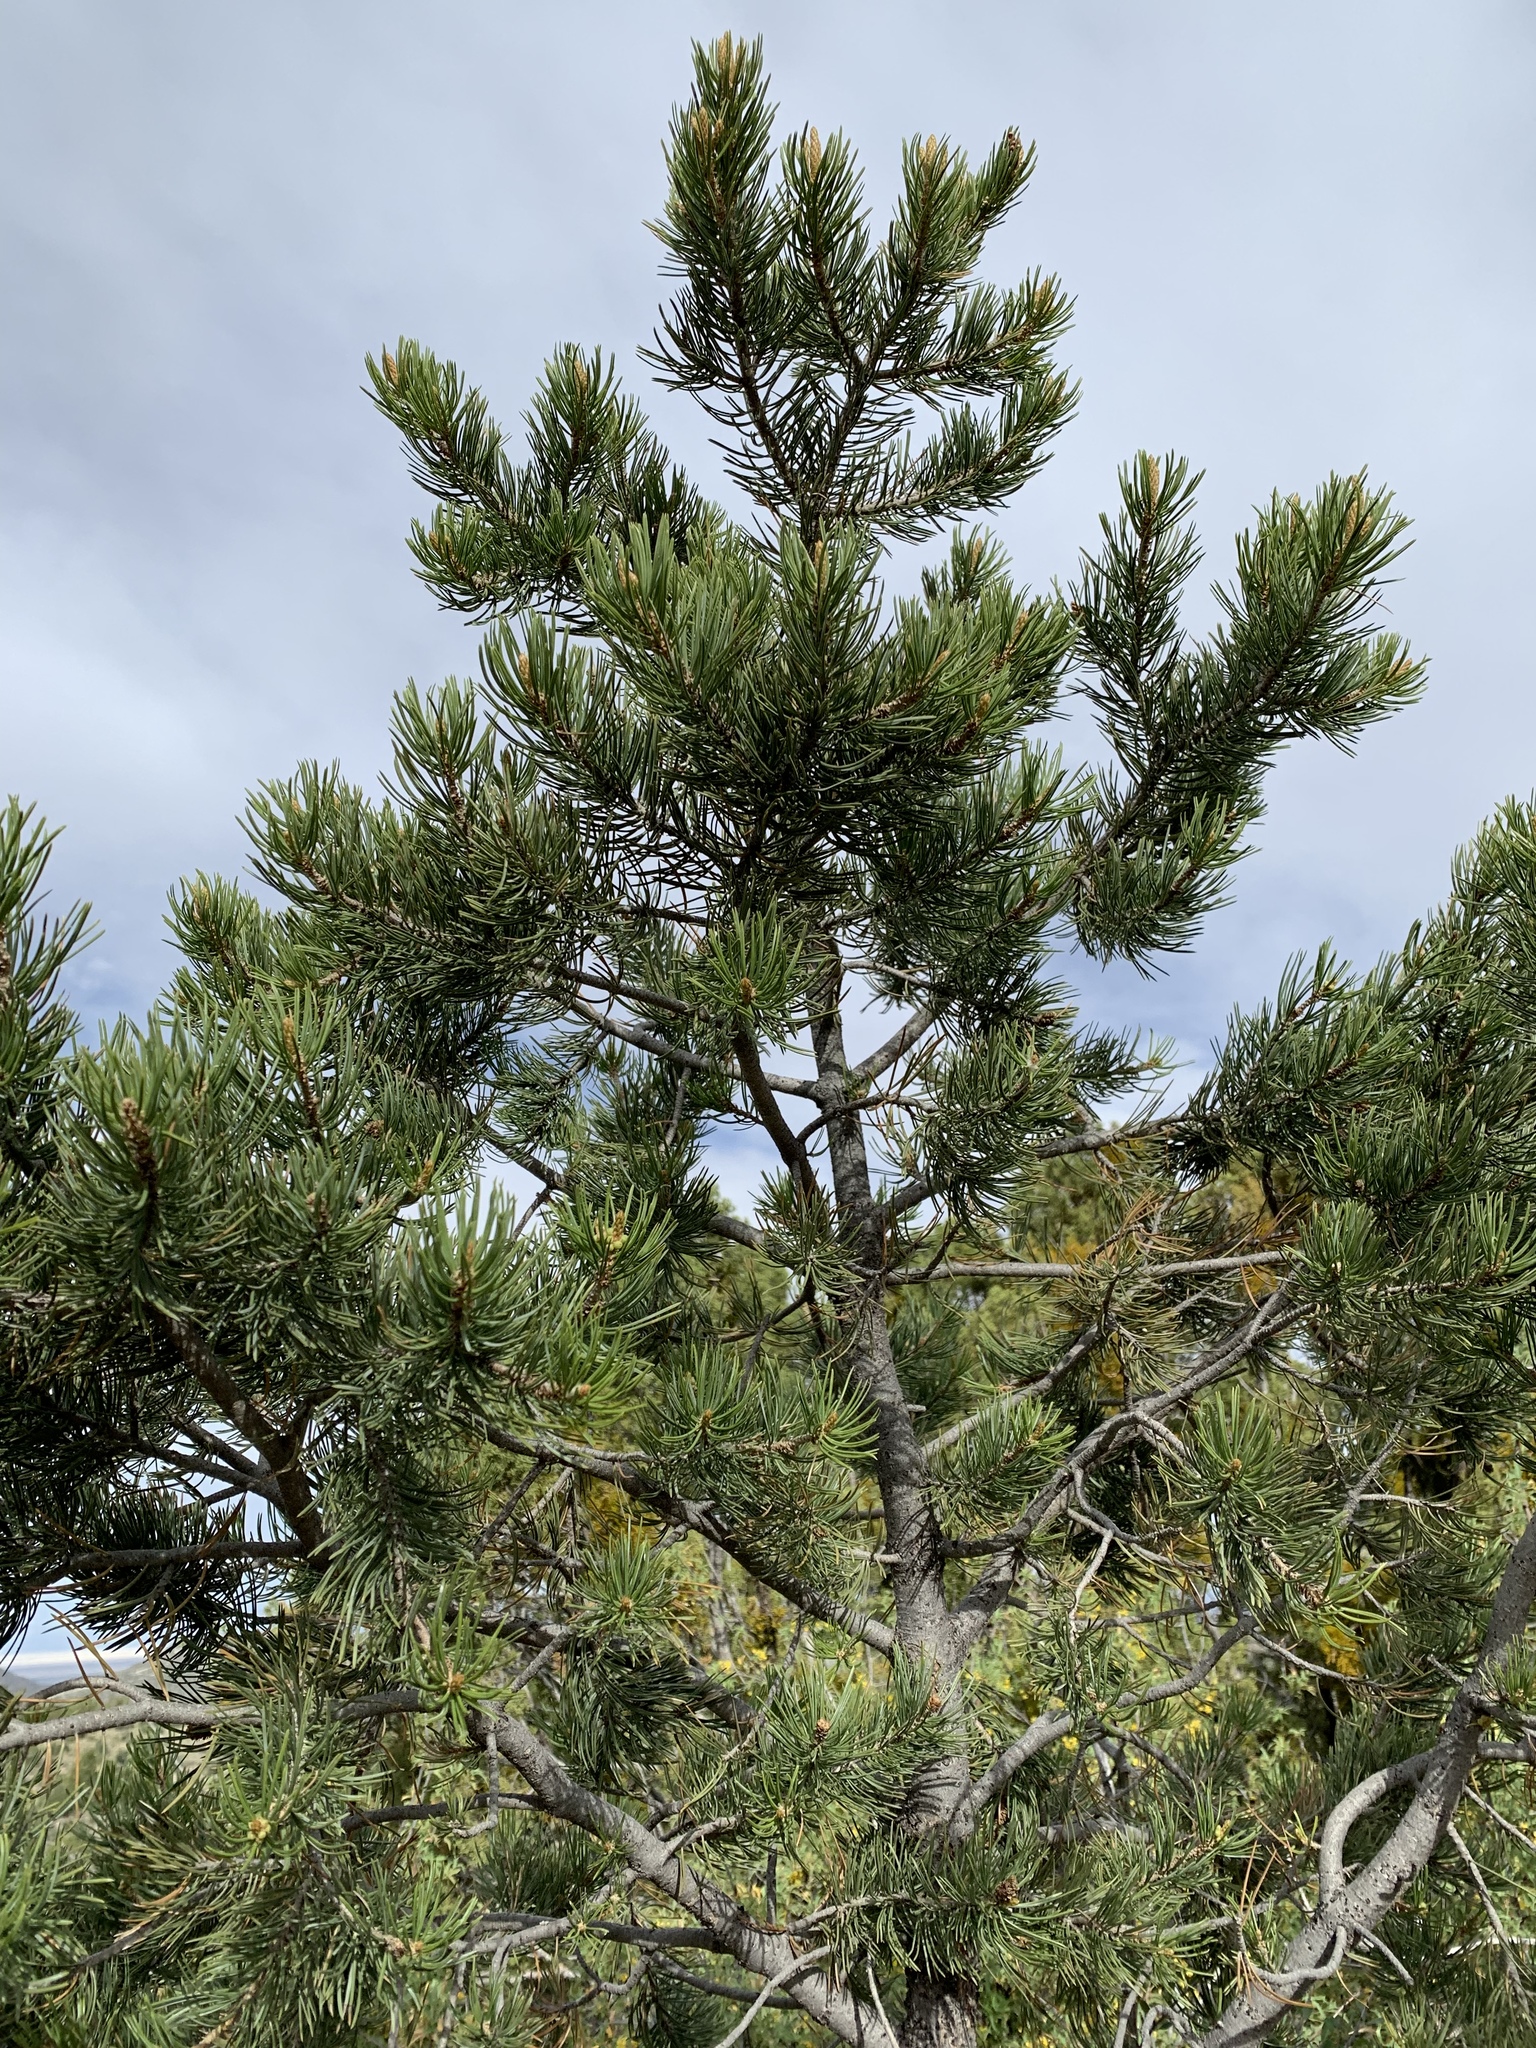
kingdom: Plantae
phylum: Tracheophyta
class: Pinopsida
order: Pinales
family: Pinaceae
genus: Pinus
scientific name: Pinus edulis
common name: Colorado pinyon
